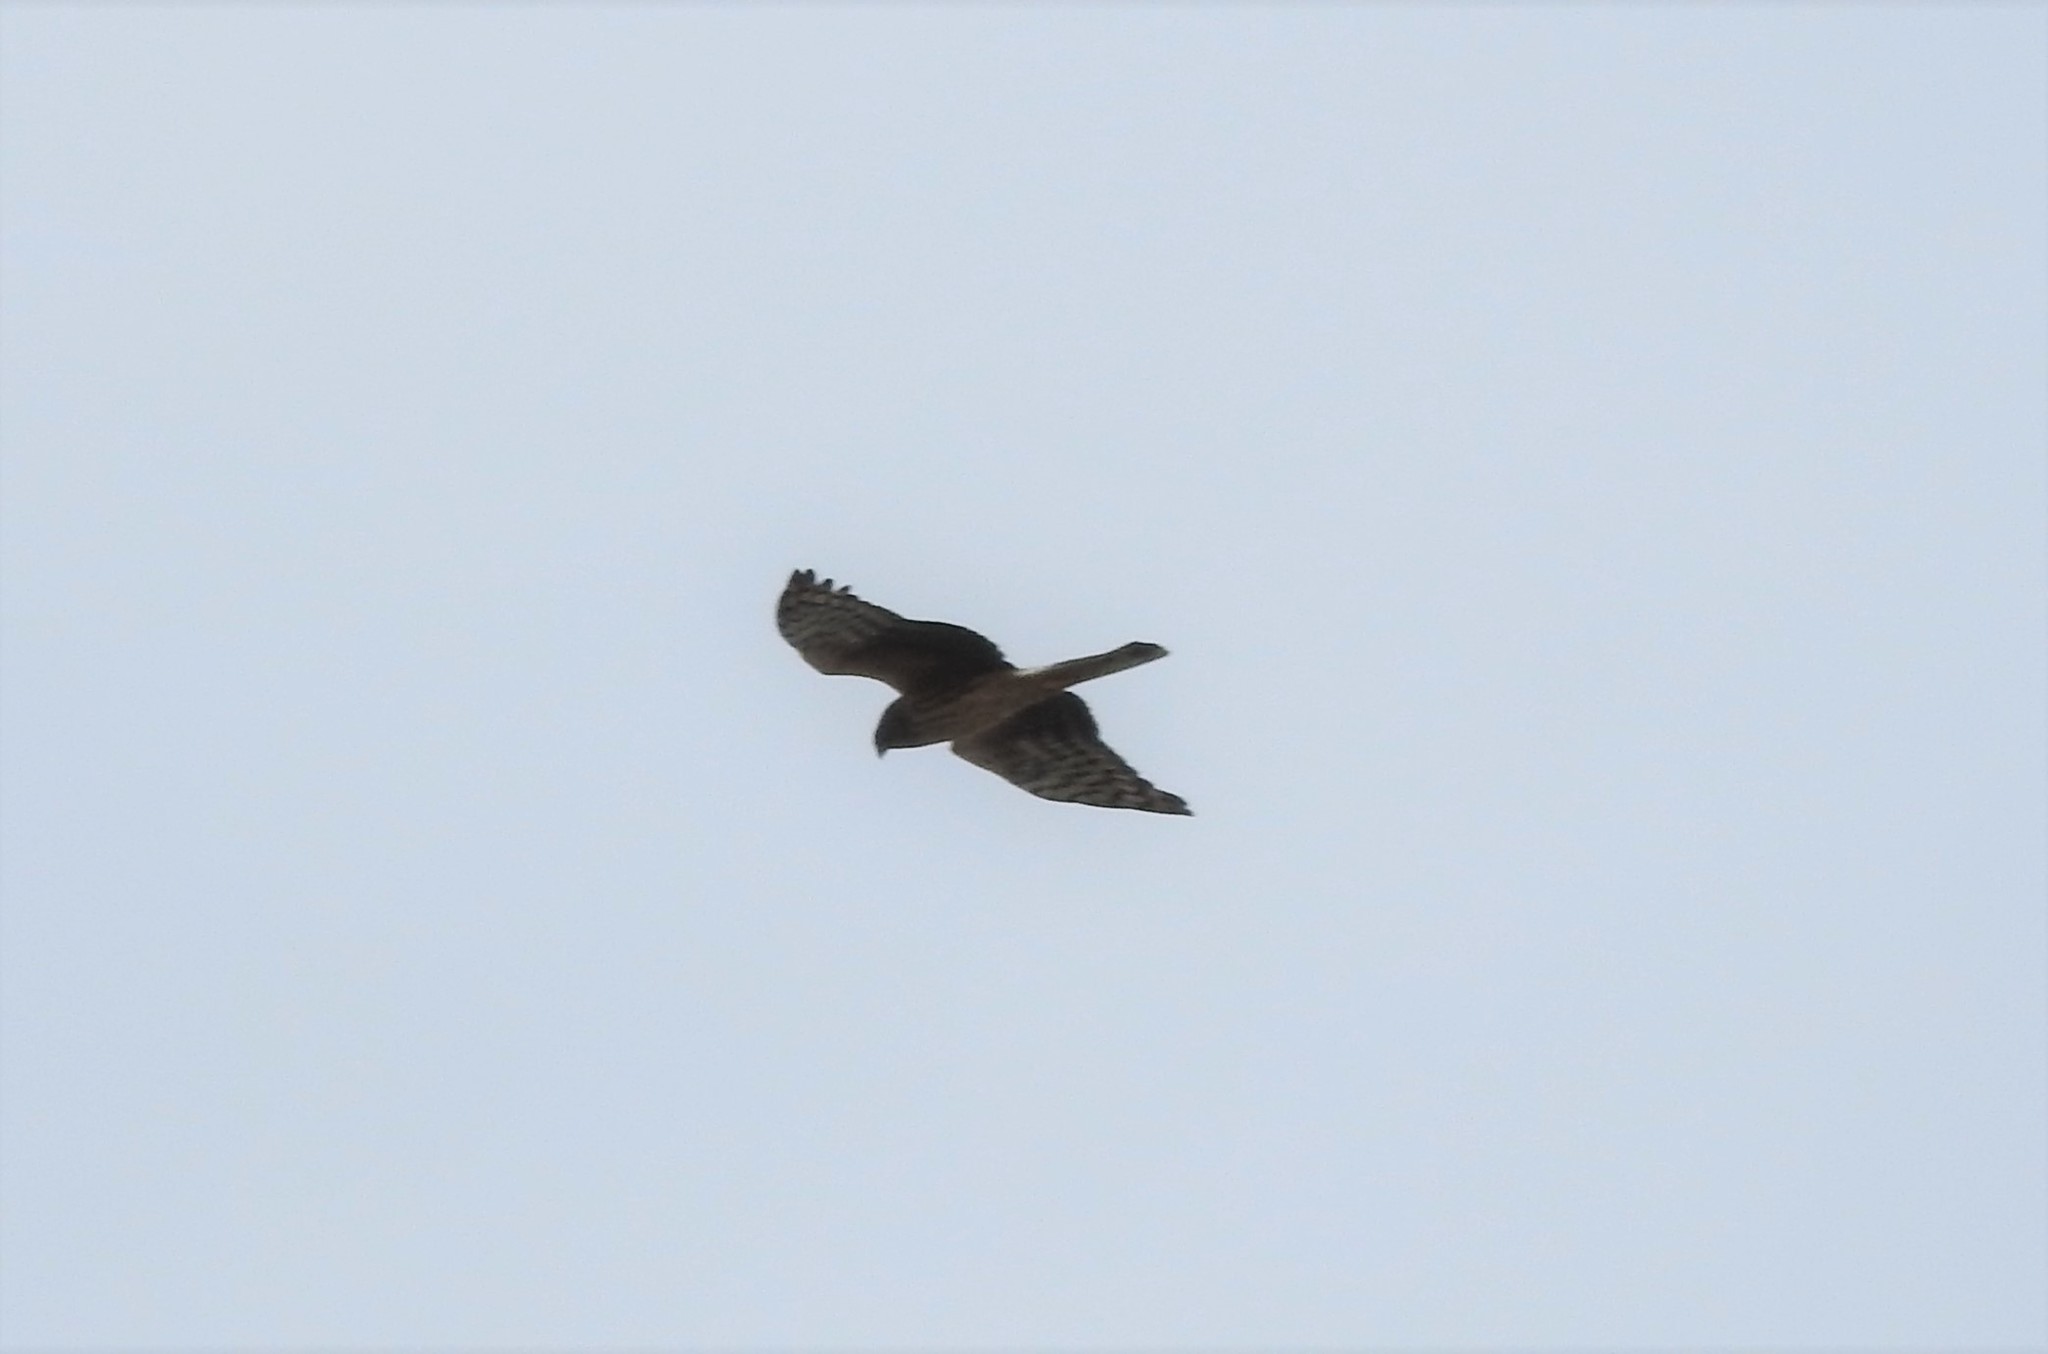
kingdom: Animalia
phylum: Chordata
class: Aves
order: Accipitriformes
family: Accipitridae
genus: Circus
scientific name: Circus cyaneus
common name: Hen harrier
